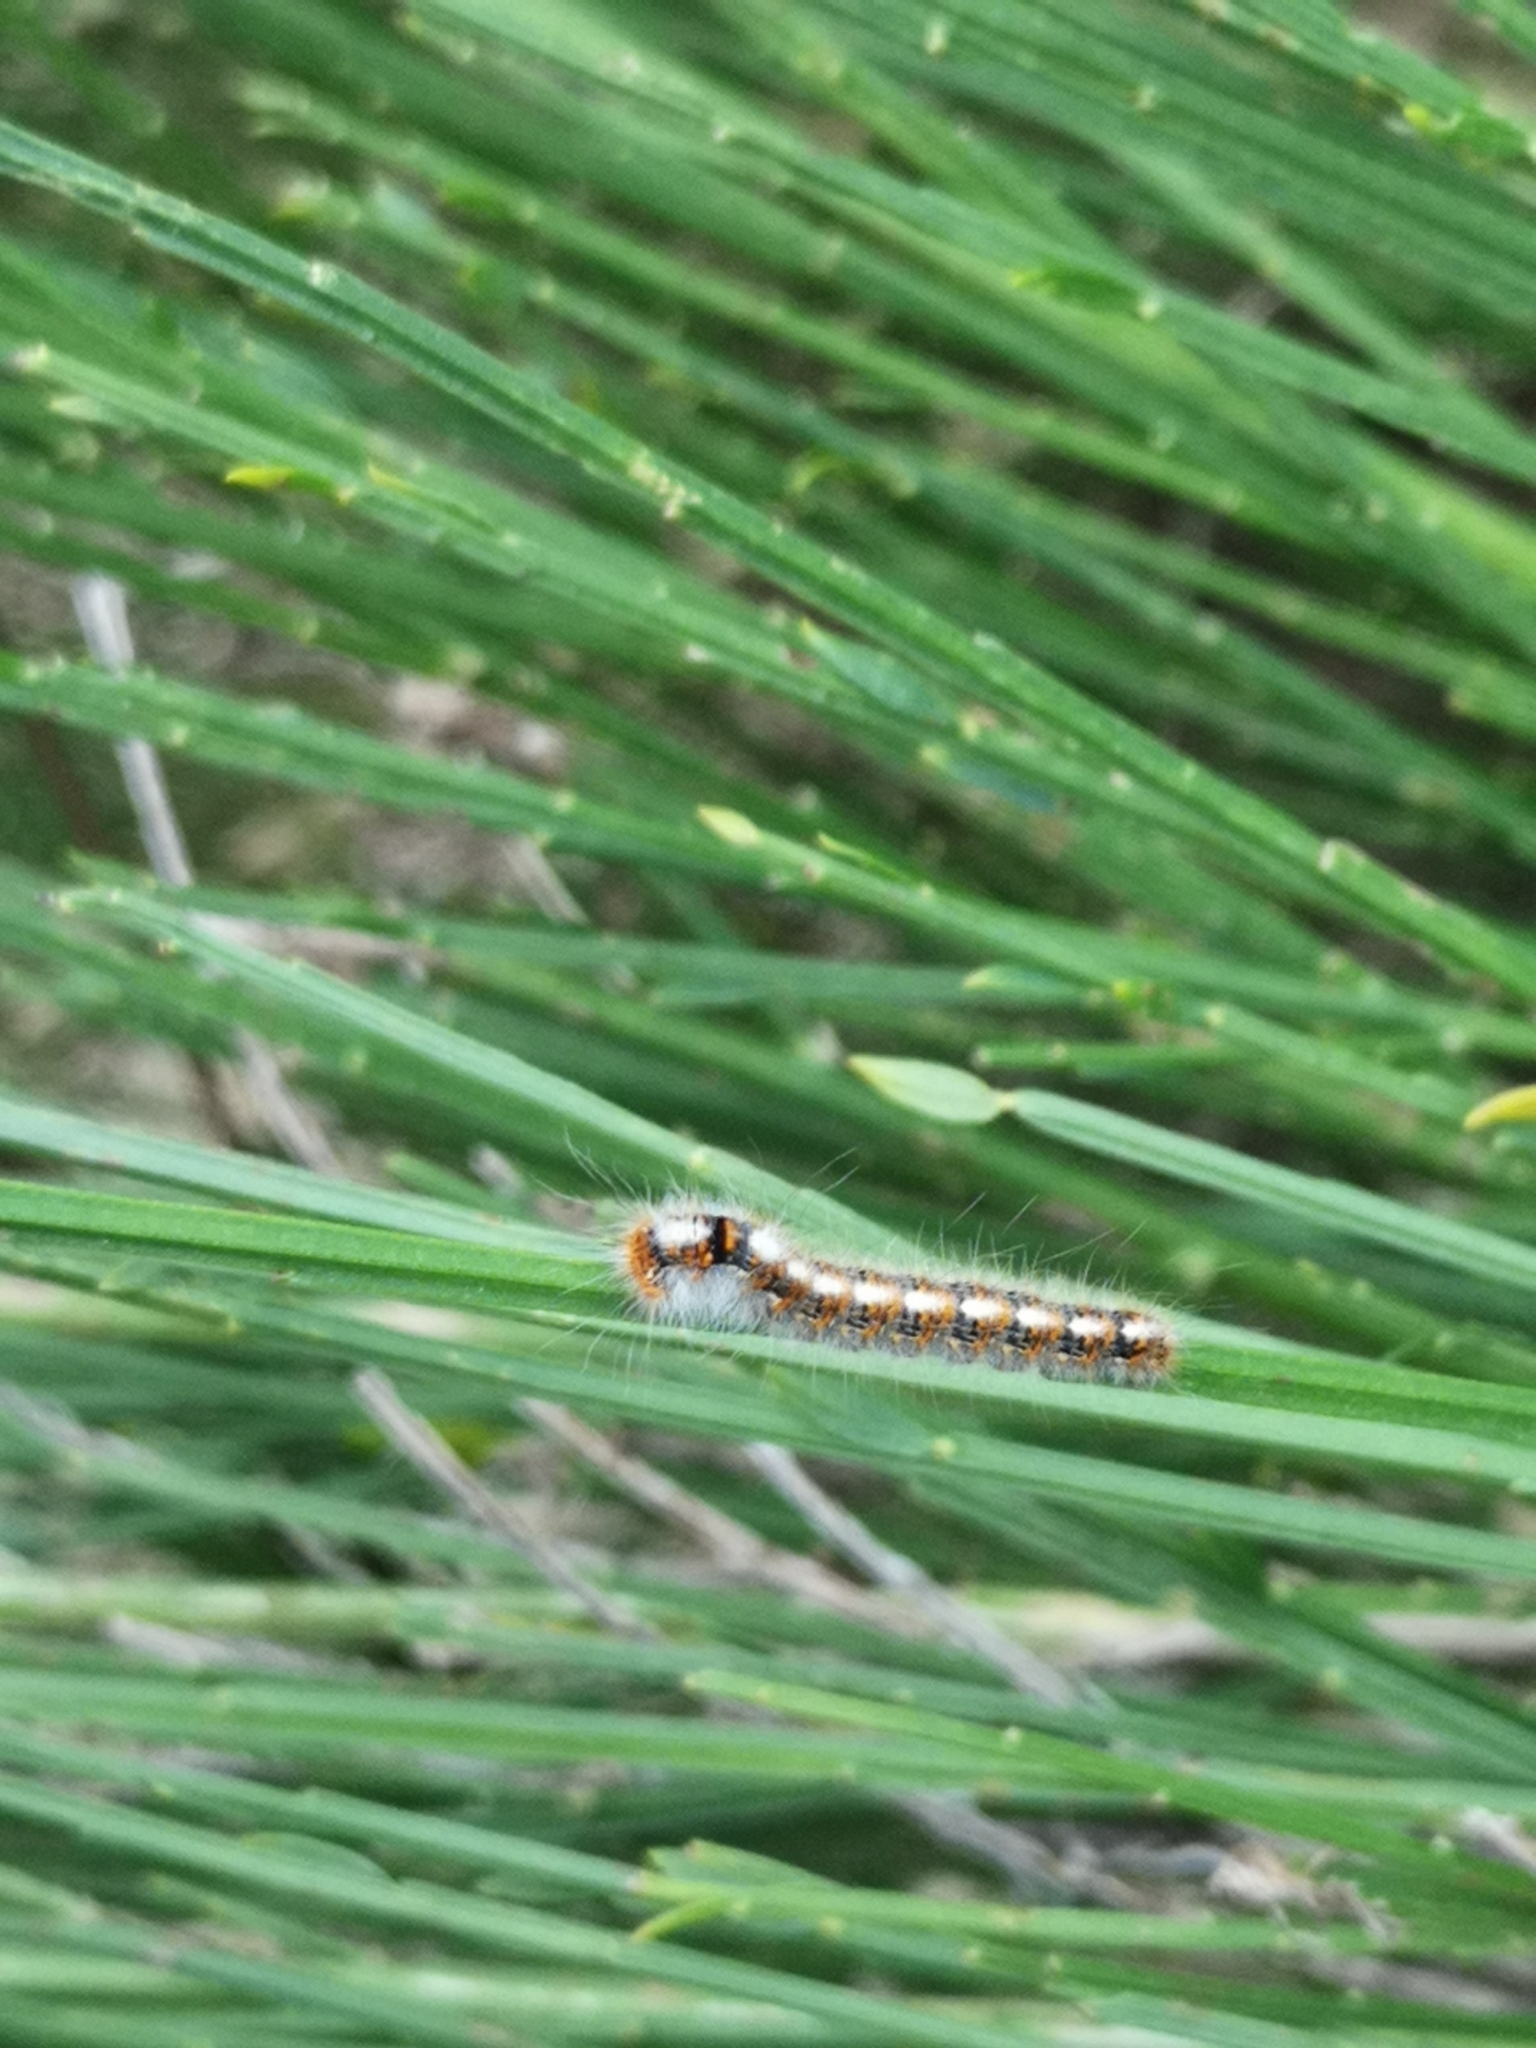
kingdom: Animalia
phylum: Arthropoda
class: Insecta
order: Lepidoptera
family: Lasiocampidae
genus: Lasiocampa
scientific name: Lasiocampa quercus
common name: Oak eggar
